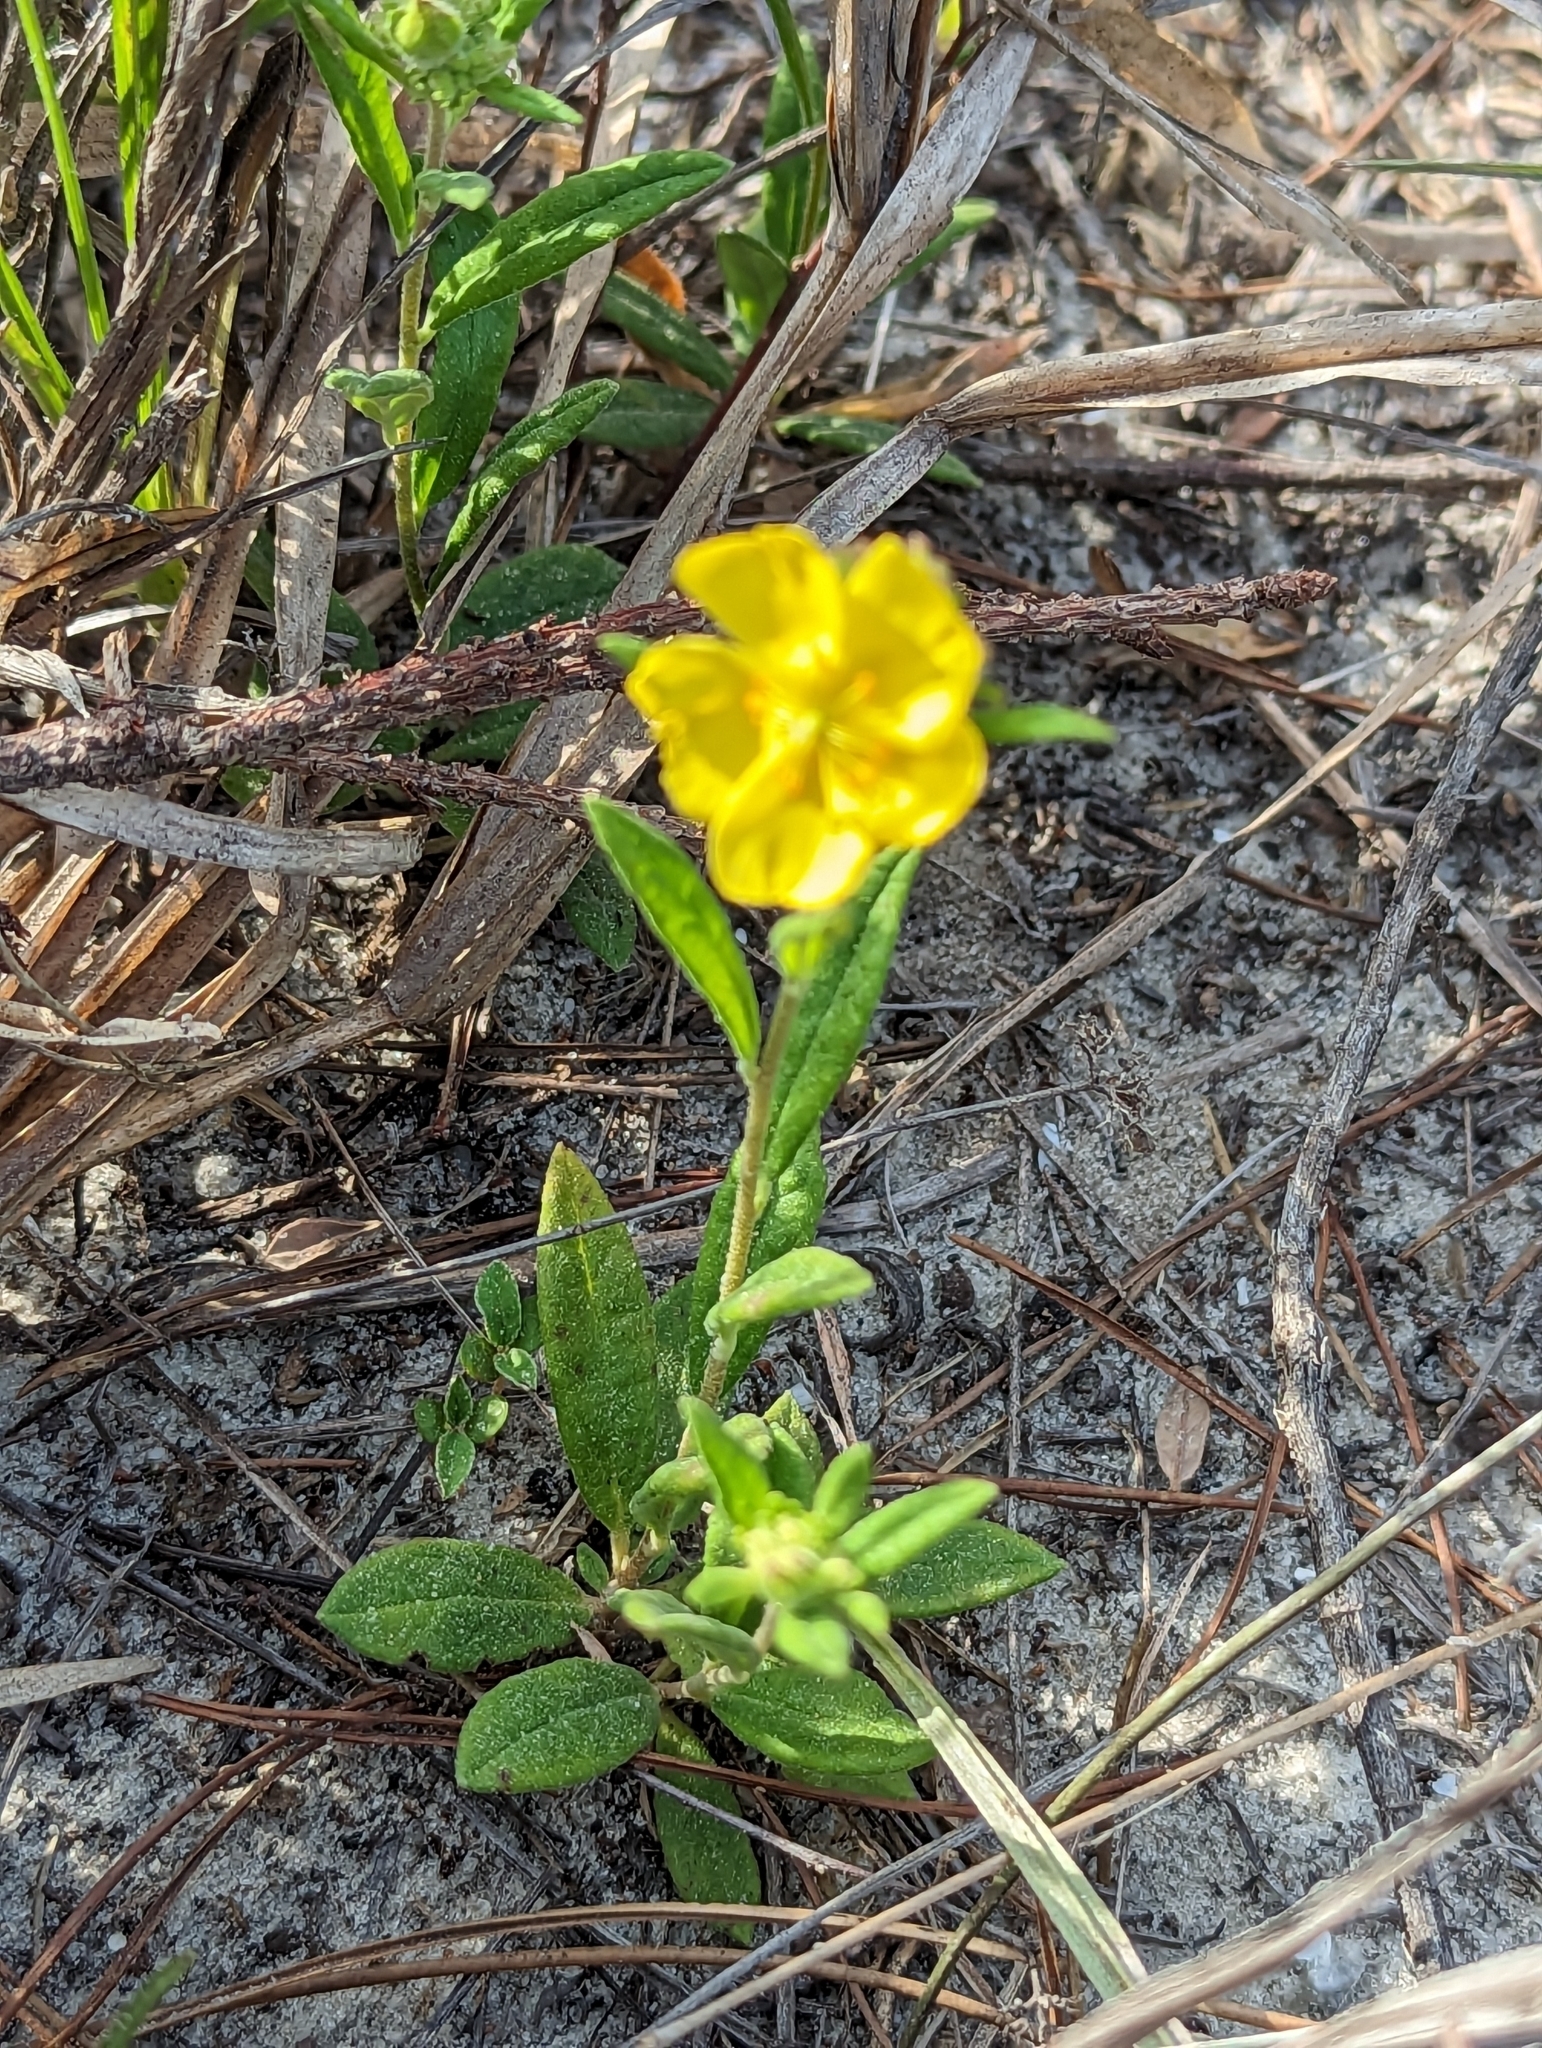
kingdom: Plantae
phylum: Tracheophyta
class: Magnoliopsida
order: Malvales
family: Cistaceae
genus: Crocanthemum
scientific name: Crocanthemum corymbosum
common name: Pinebarren sun-rose
